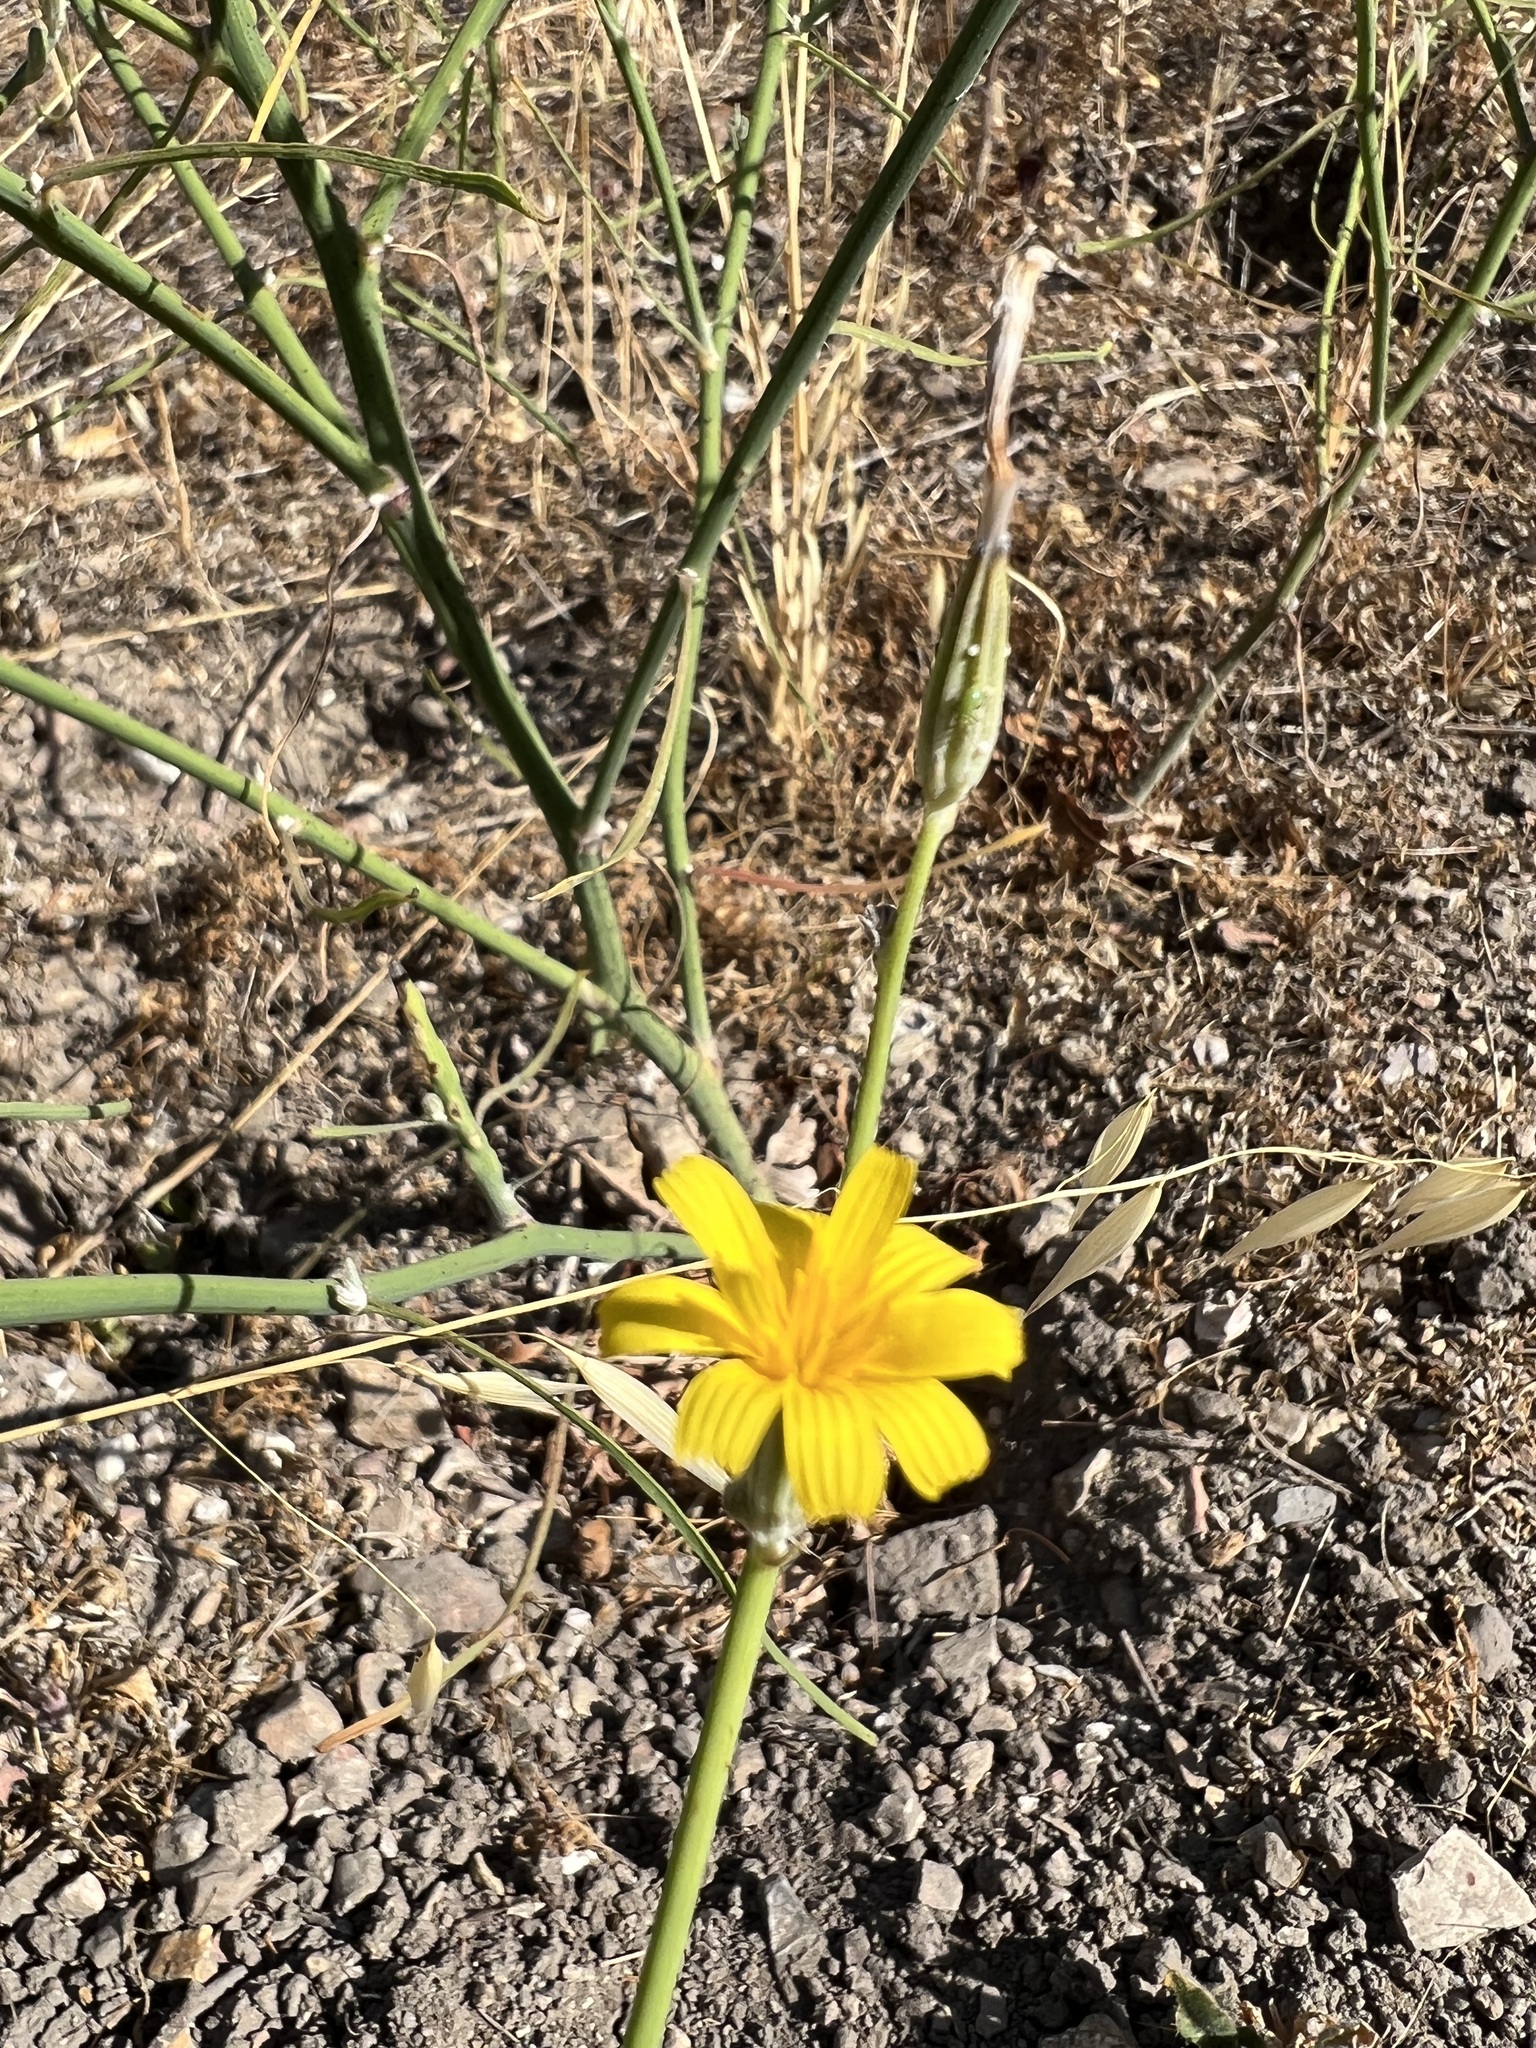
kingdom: Plantae
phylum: Tracheophyta
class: Magnoliopsida
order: Asterales
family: Asteraceae
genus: Chondrilla
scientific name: Chondrilla juncea
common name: Skeleton weed
